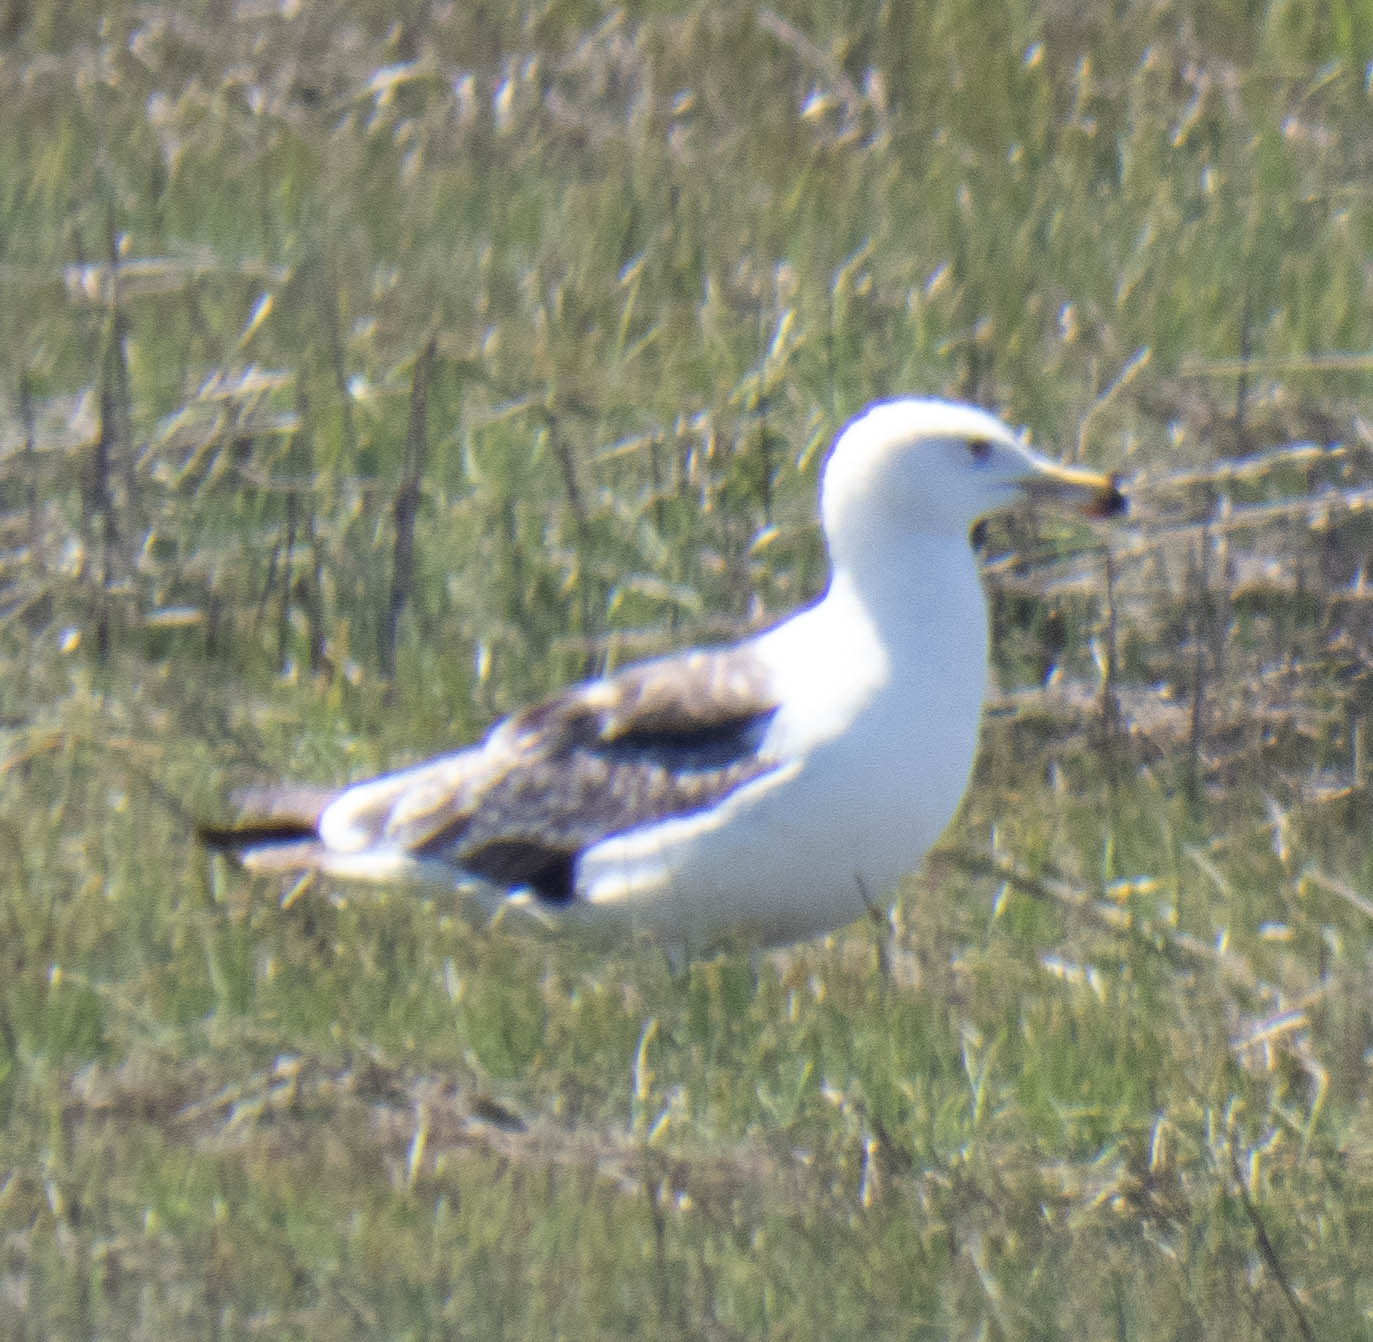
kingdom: Animalia
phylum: Chordata
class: Aves
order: Charadriiformes
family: Laridae
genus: Larus
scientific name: Larus marinus
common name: Great black-backed gull
